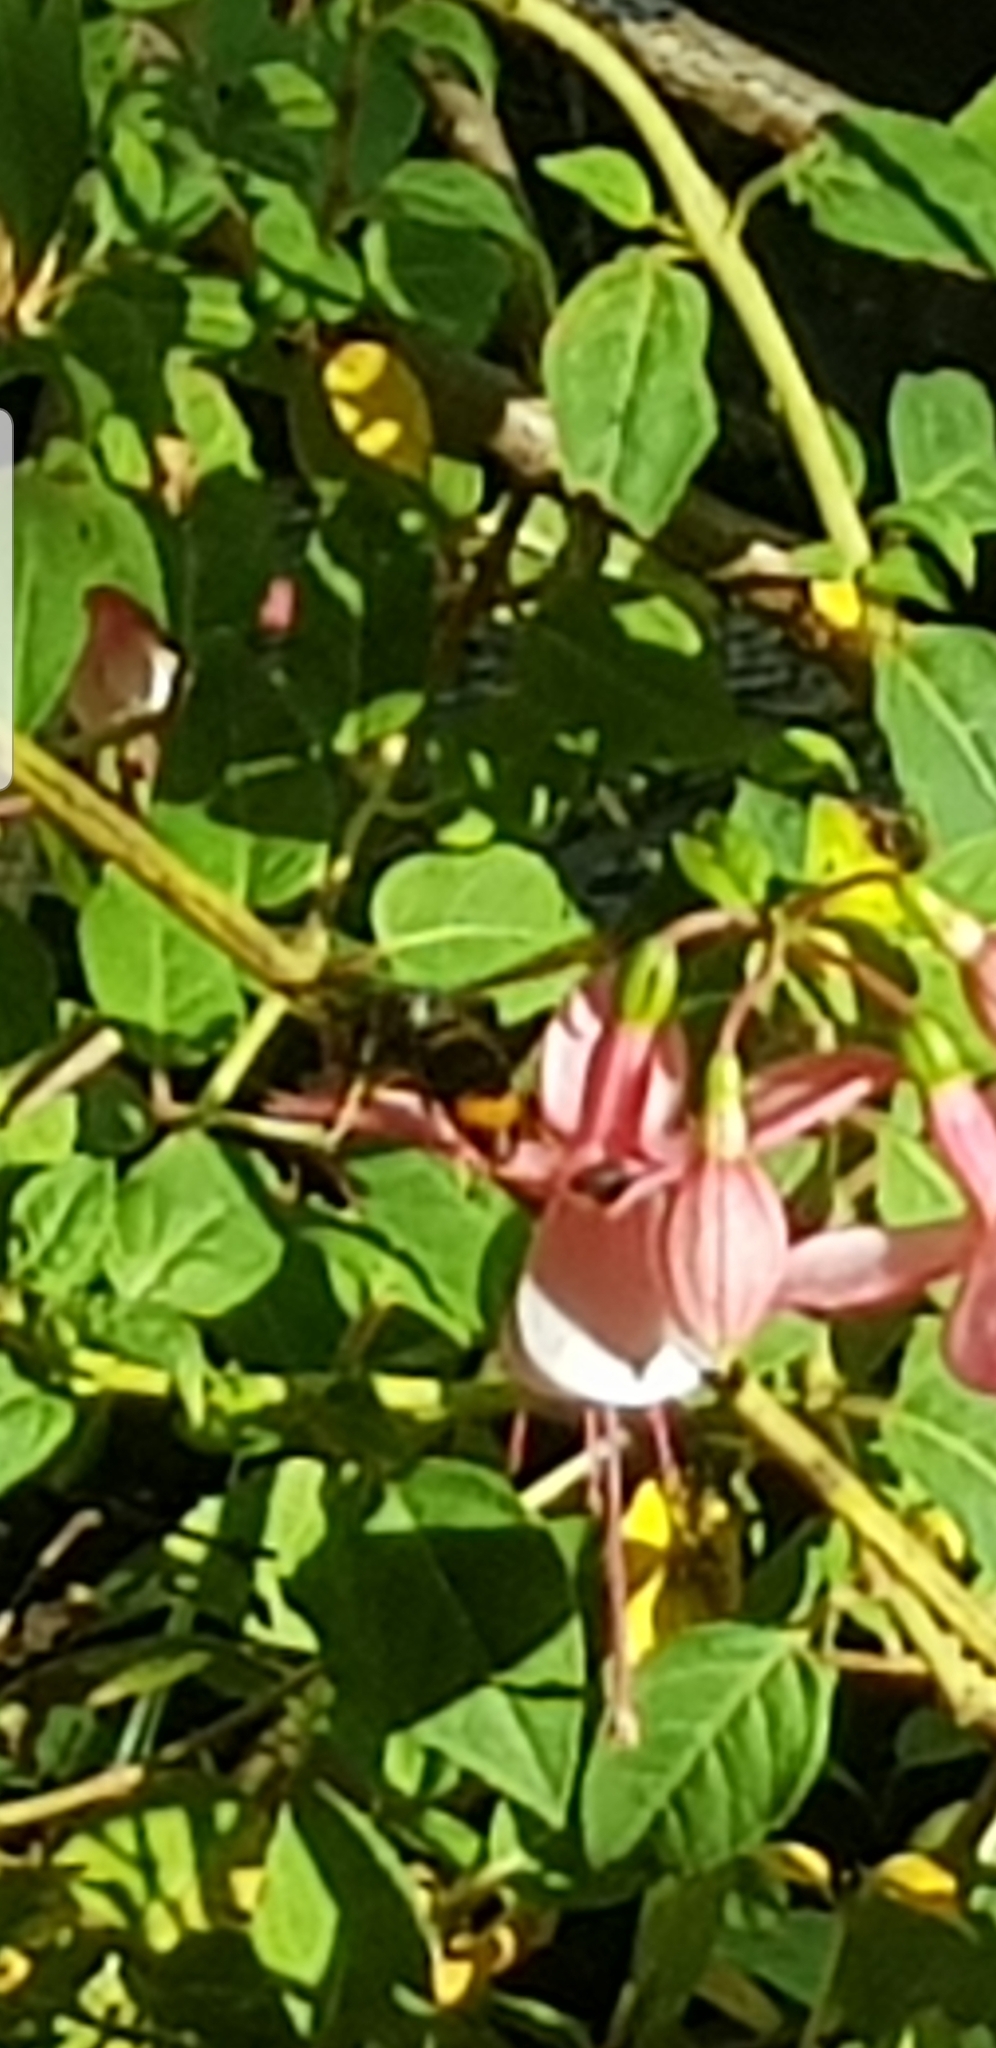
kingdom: Animalia
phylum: Arthropoda
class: Insecta
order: Hymenoptera
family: Vespidae
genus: Vespa
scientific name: Vespa velutina
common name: Asian hornet
